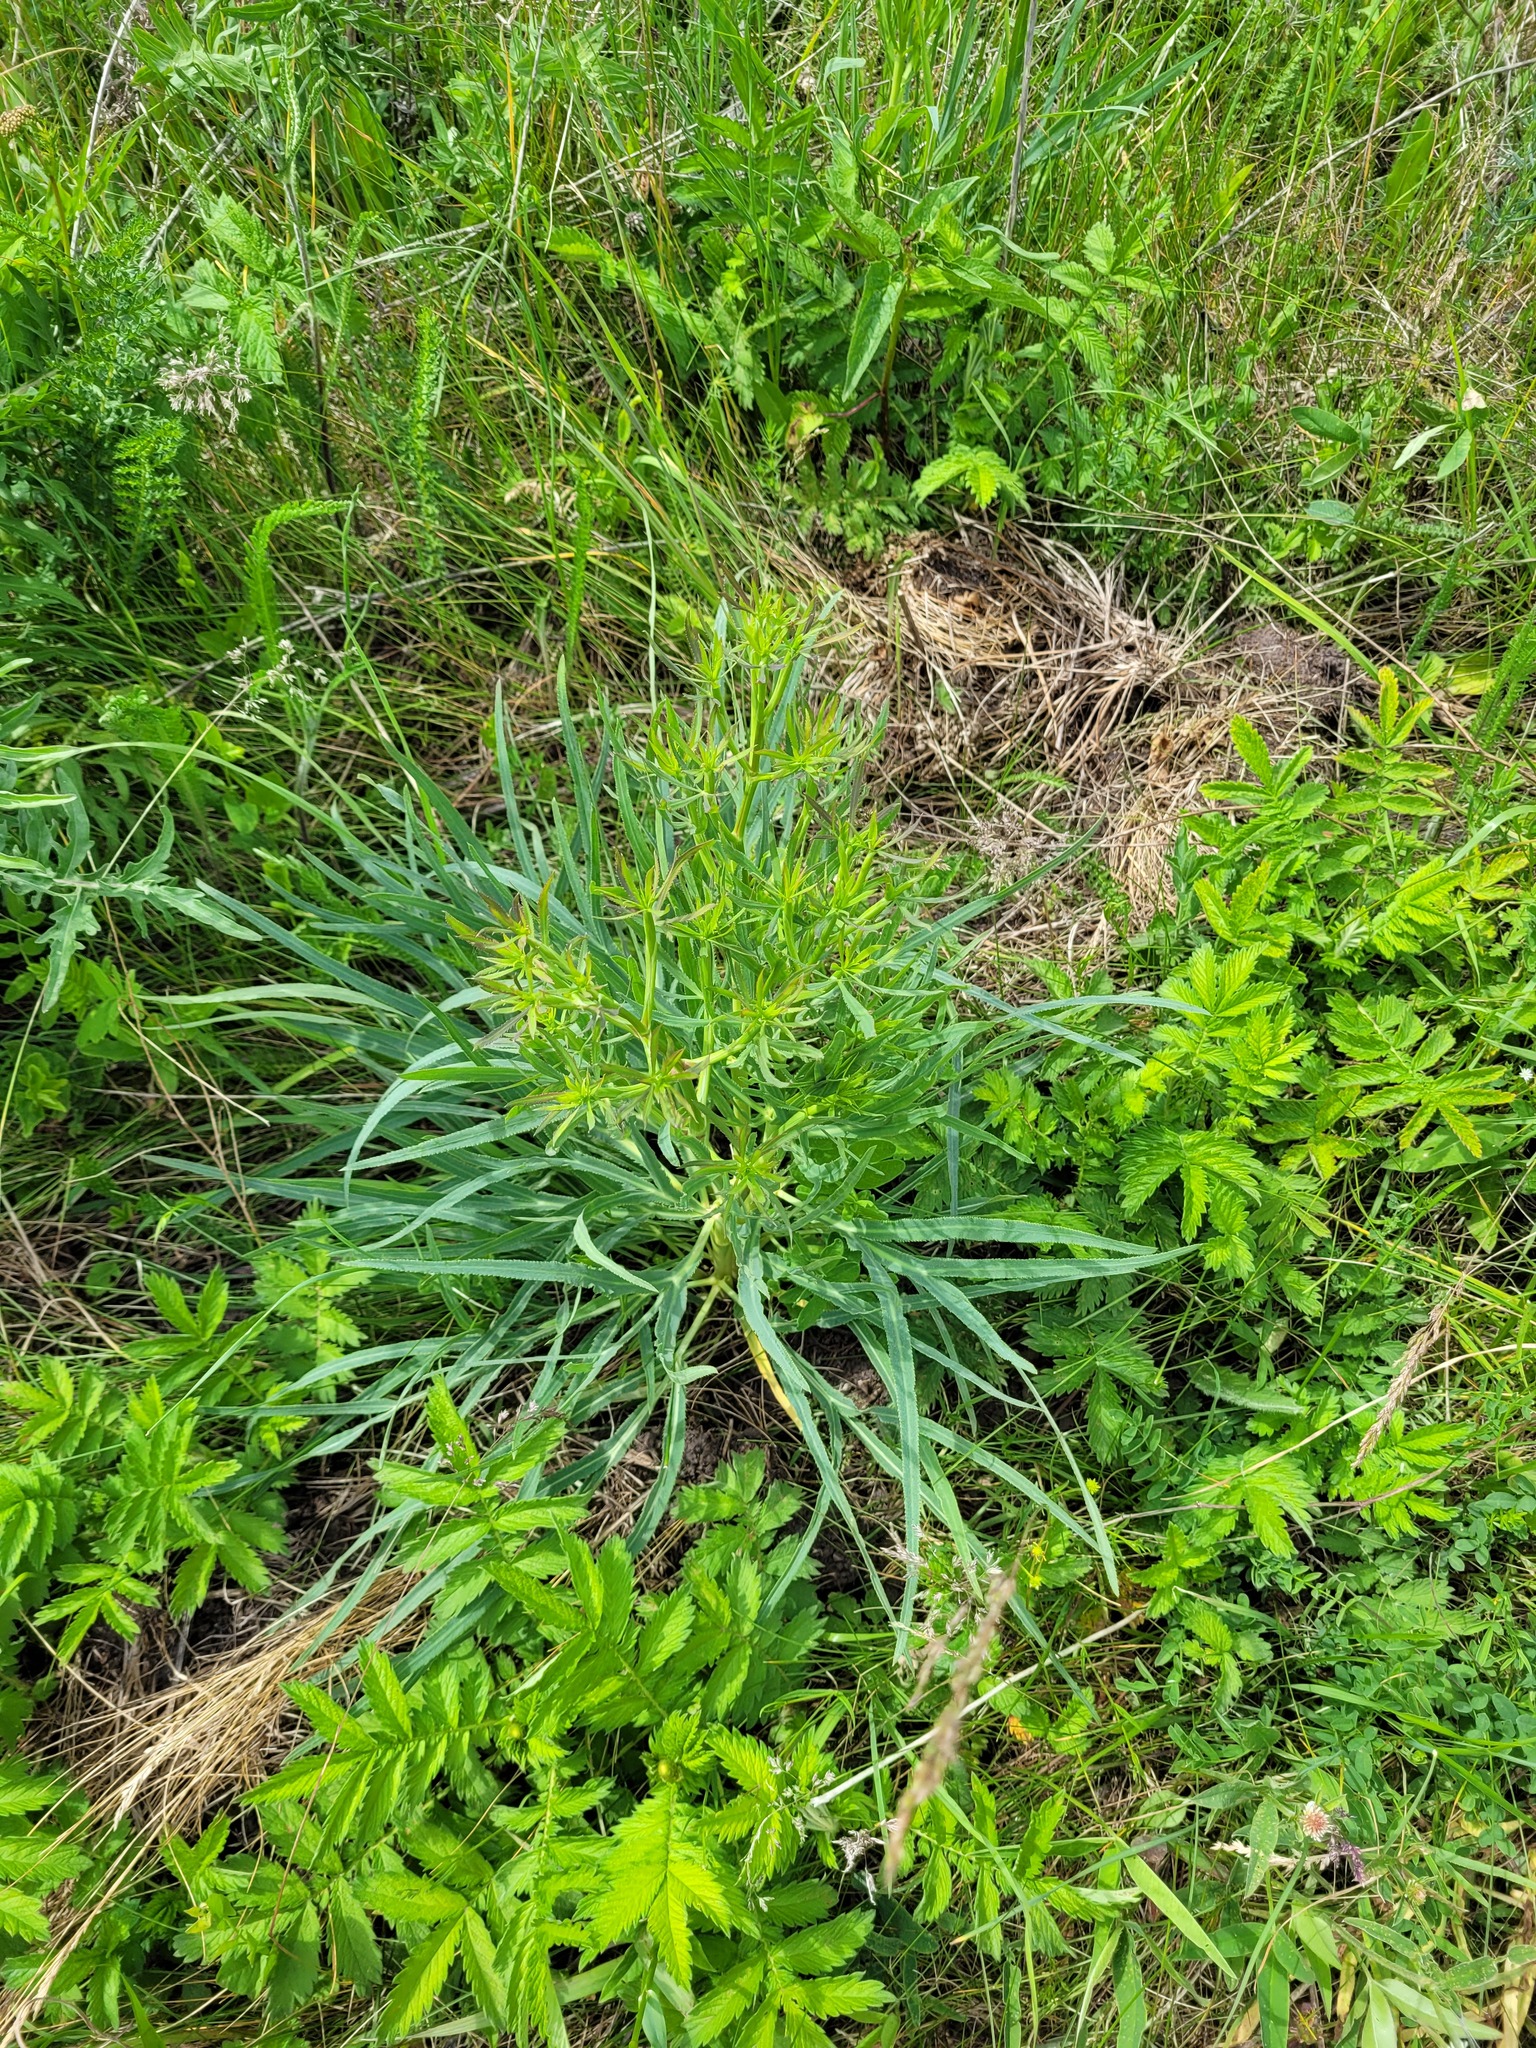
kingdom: Plantae
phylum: Tracheophyta
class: Magnoliopsida
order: Apiales
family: Apiaceae
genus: Falcaria
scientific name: Falcaria vulgaris
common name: Longleaf
